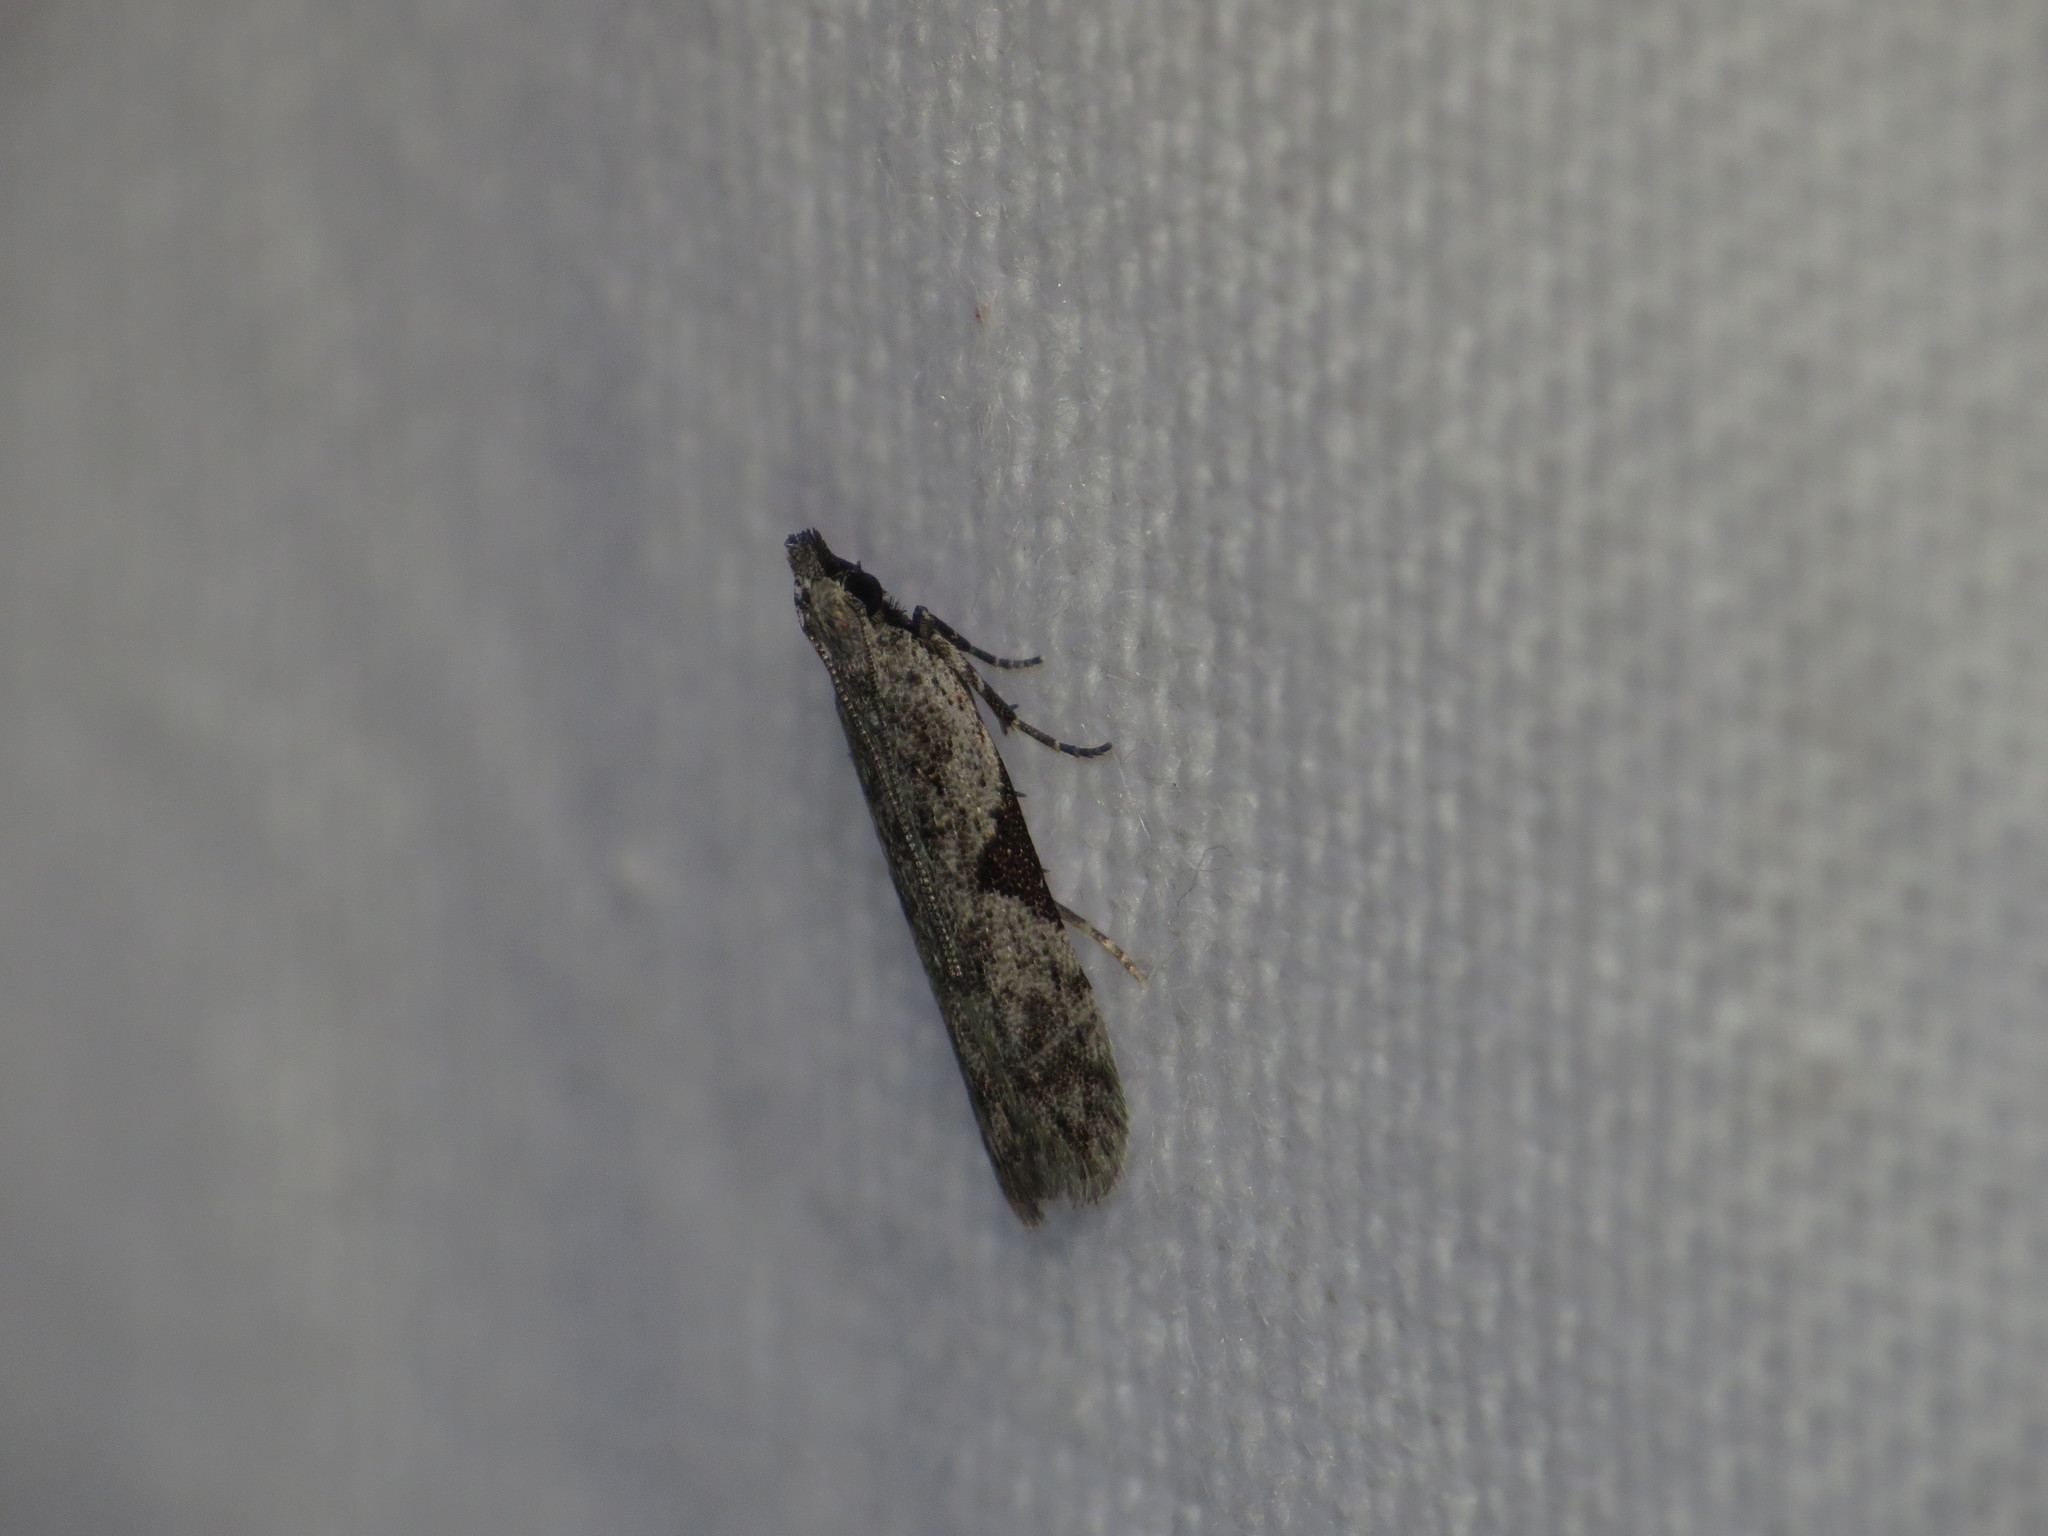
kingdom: Animalia
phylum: Arthropoda
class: Insecta
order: Lepidoptera
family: Gelechiidae
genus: Anarsia
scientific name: Anarsia molybdota
